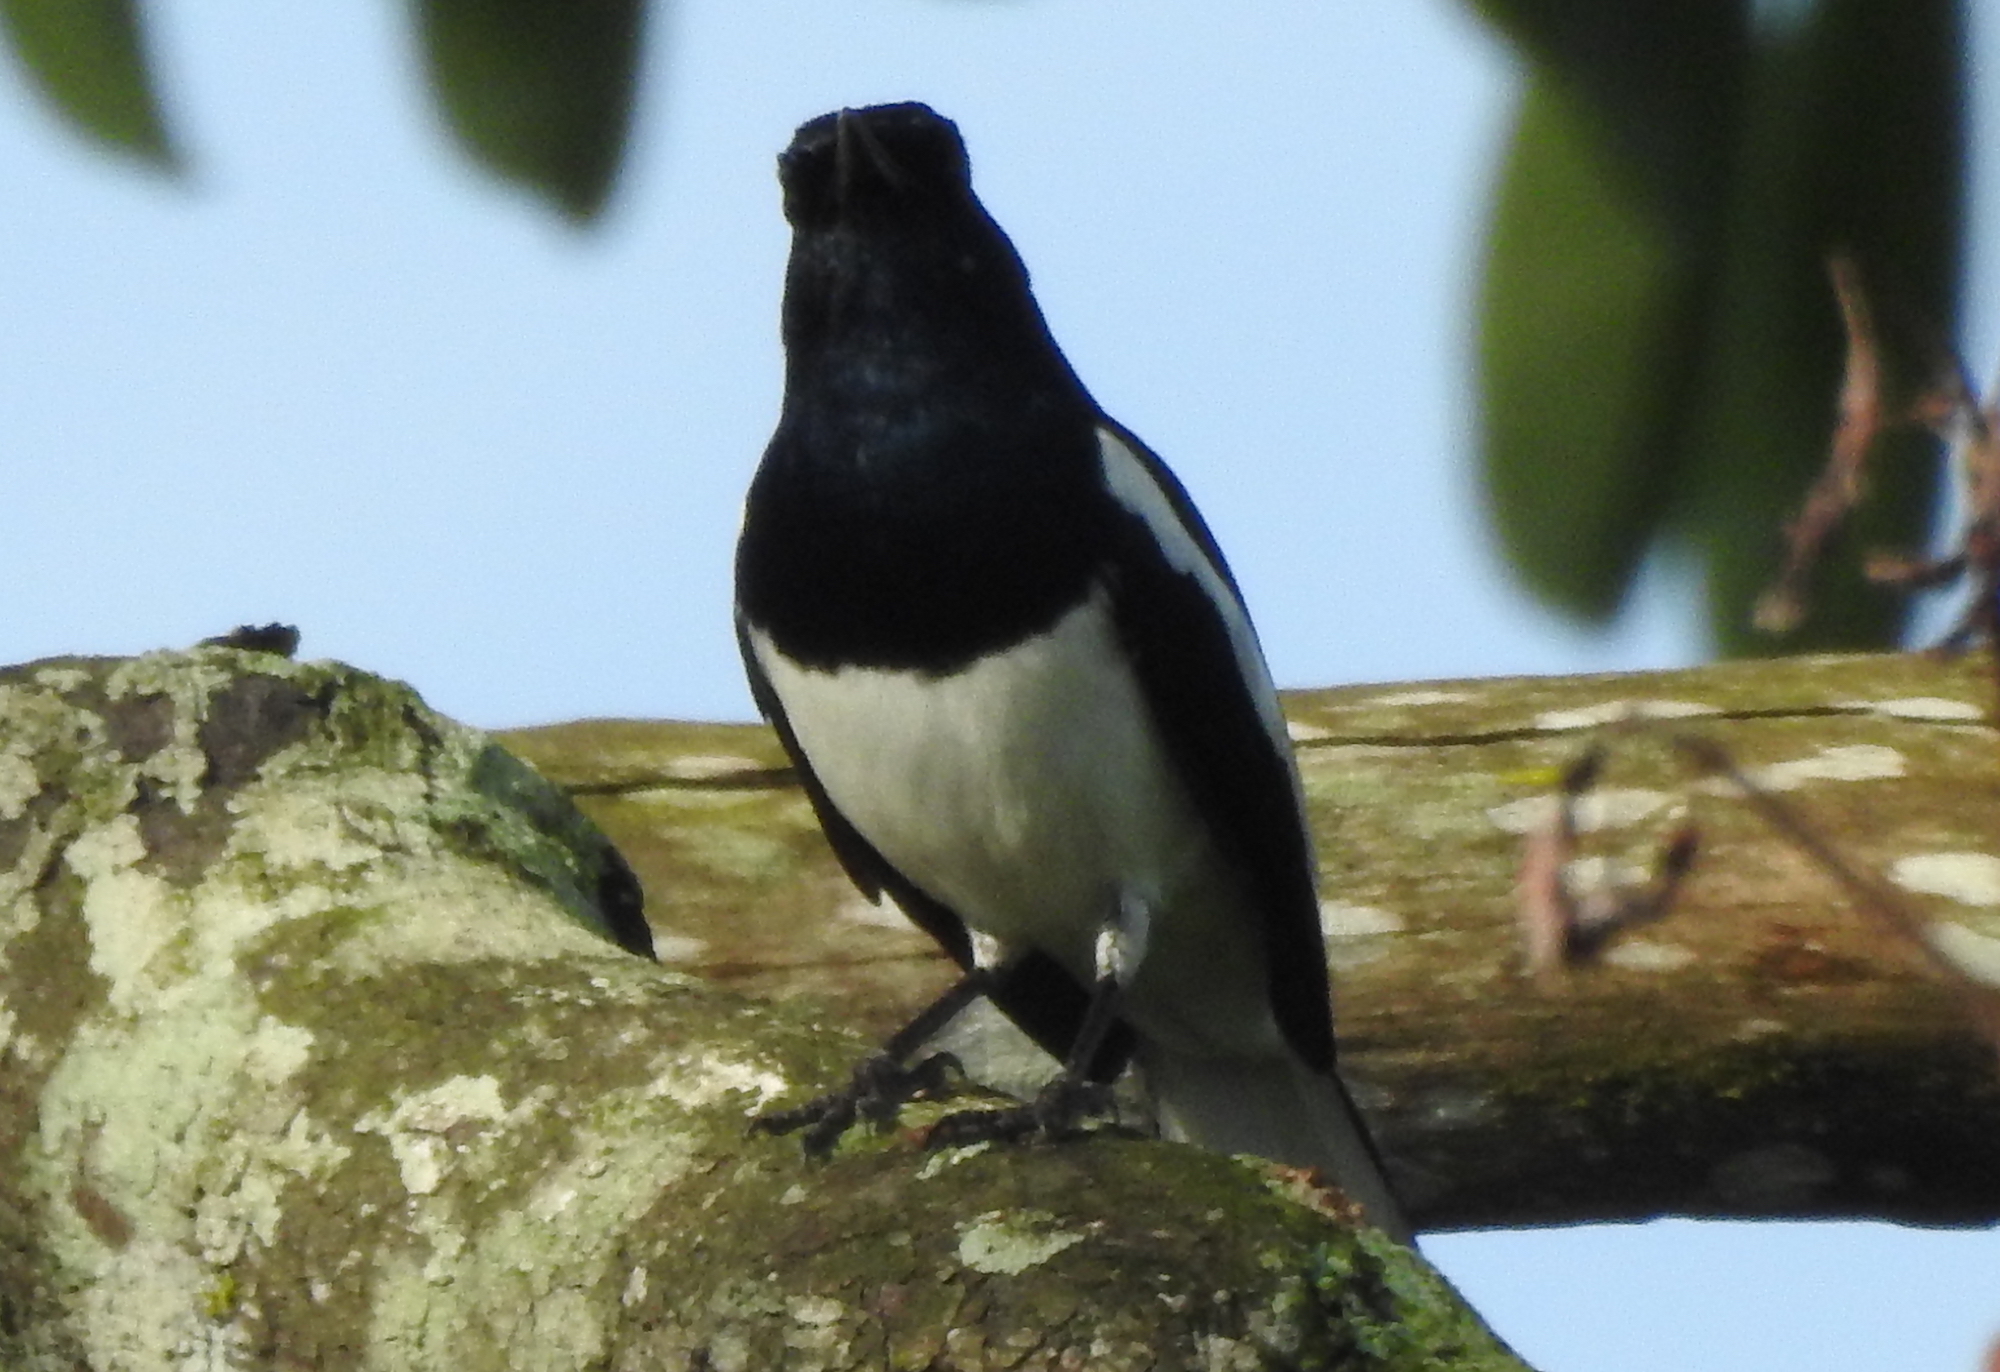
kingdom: Animalia
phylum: Chordata
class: Aves
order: Passeriformes
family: Muscicapidae
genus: Copsychus
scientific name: Copsychus saularis
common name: Oriental magpie-robin
